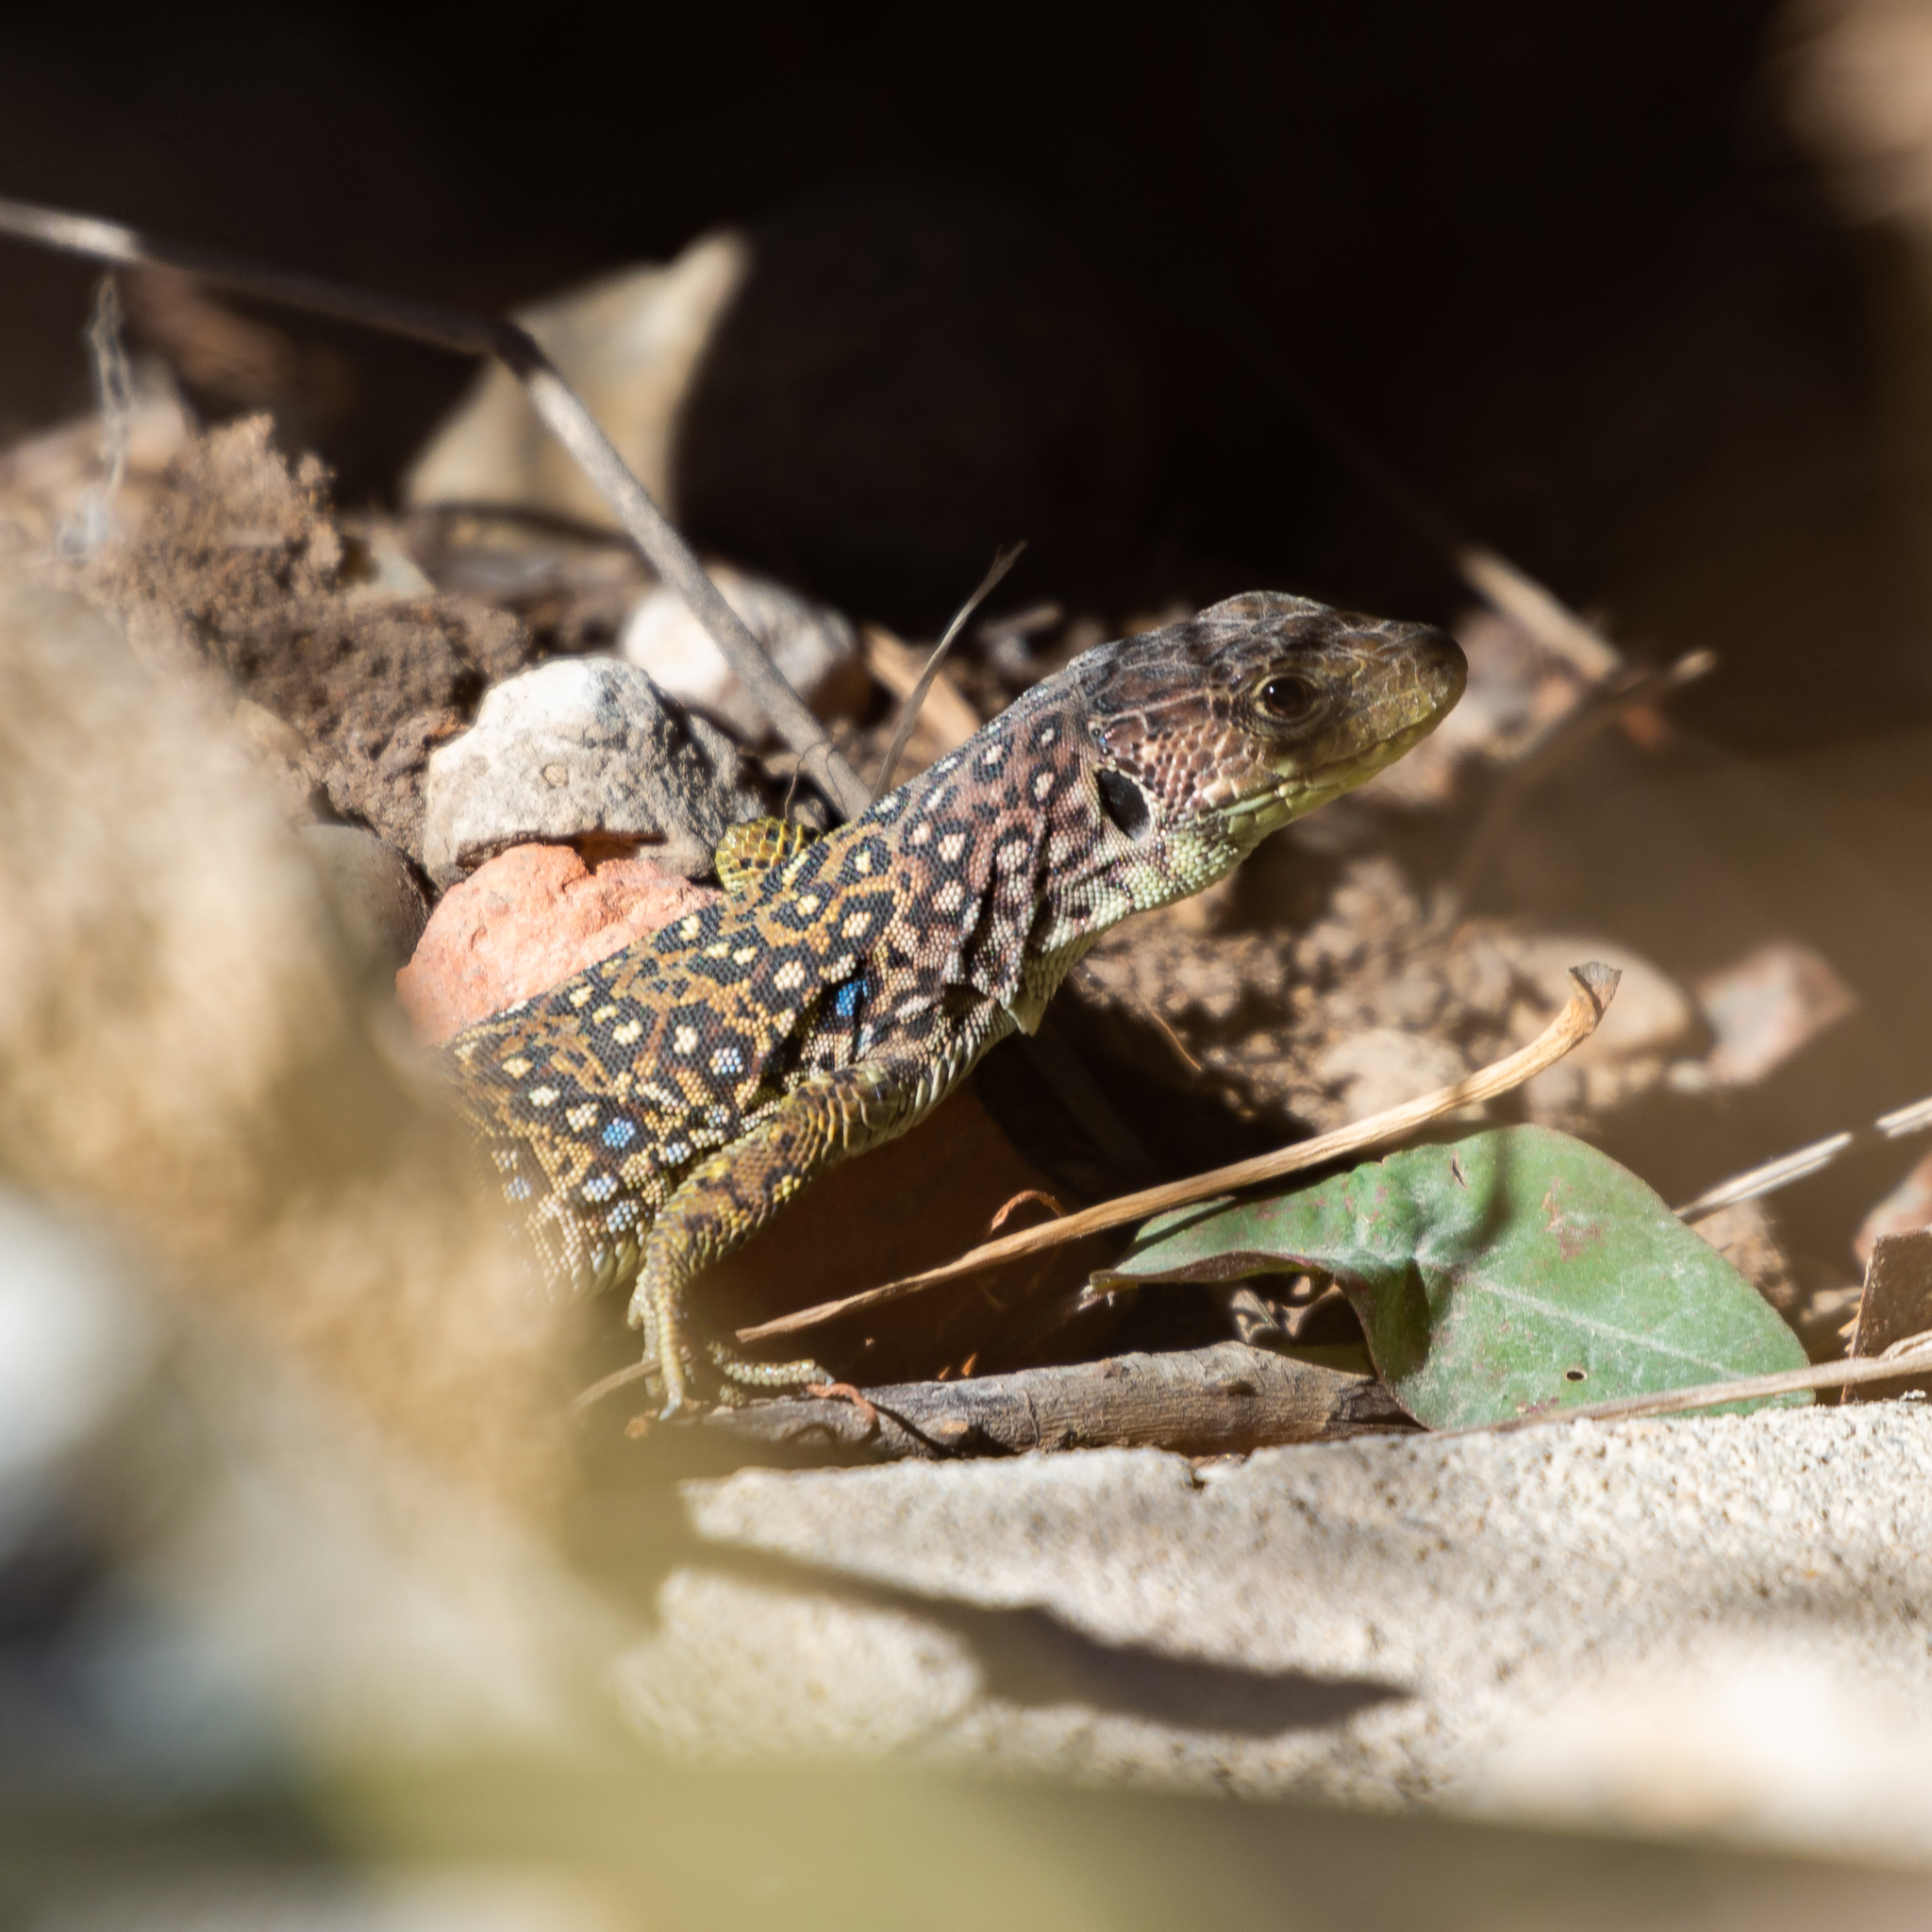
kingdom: Animalia
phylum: Chordata
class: Squamata
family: Lacertidae
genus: Timon
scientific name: Timon lepidus
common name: Ocellated lizard
